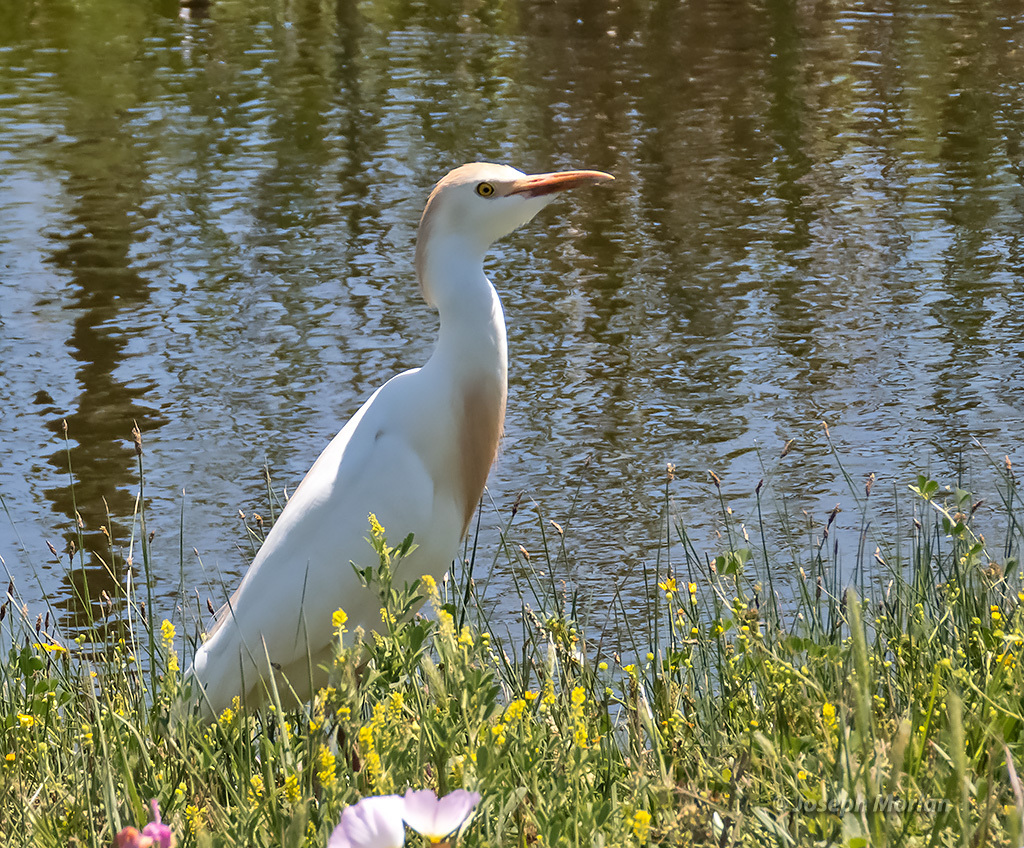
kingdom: Animalia
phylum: Chordata
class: Aves
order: Pelecaniformes
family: Ardeidae
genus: Bubulcus
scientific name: Bubulcus ibis
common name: Cattle egret
